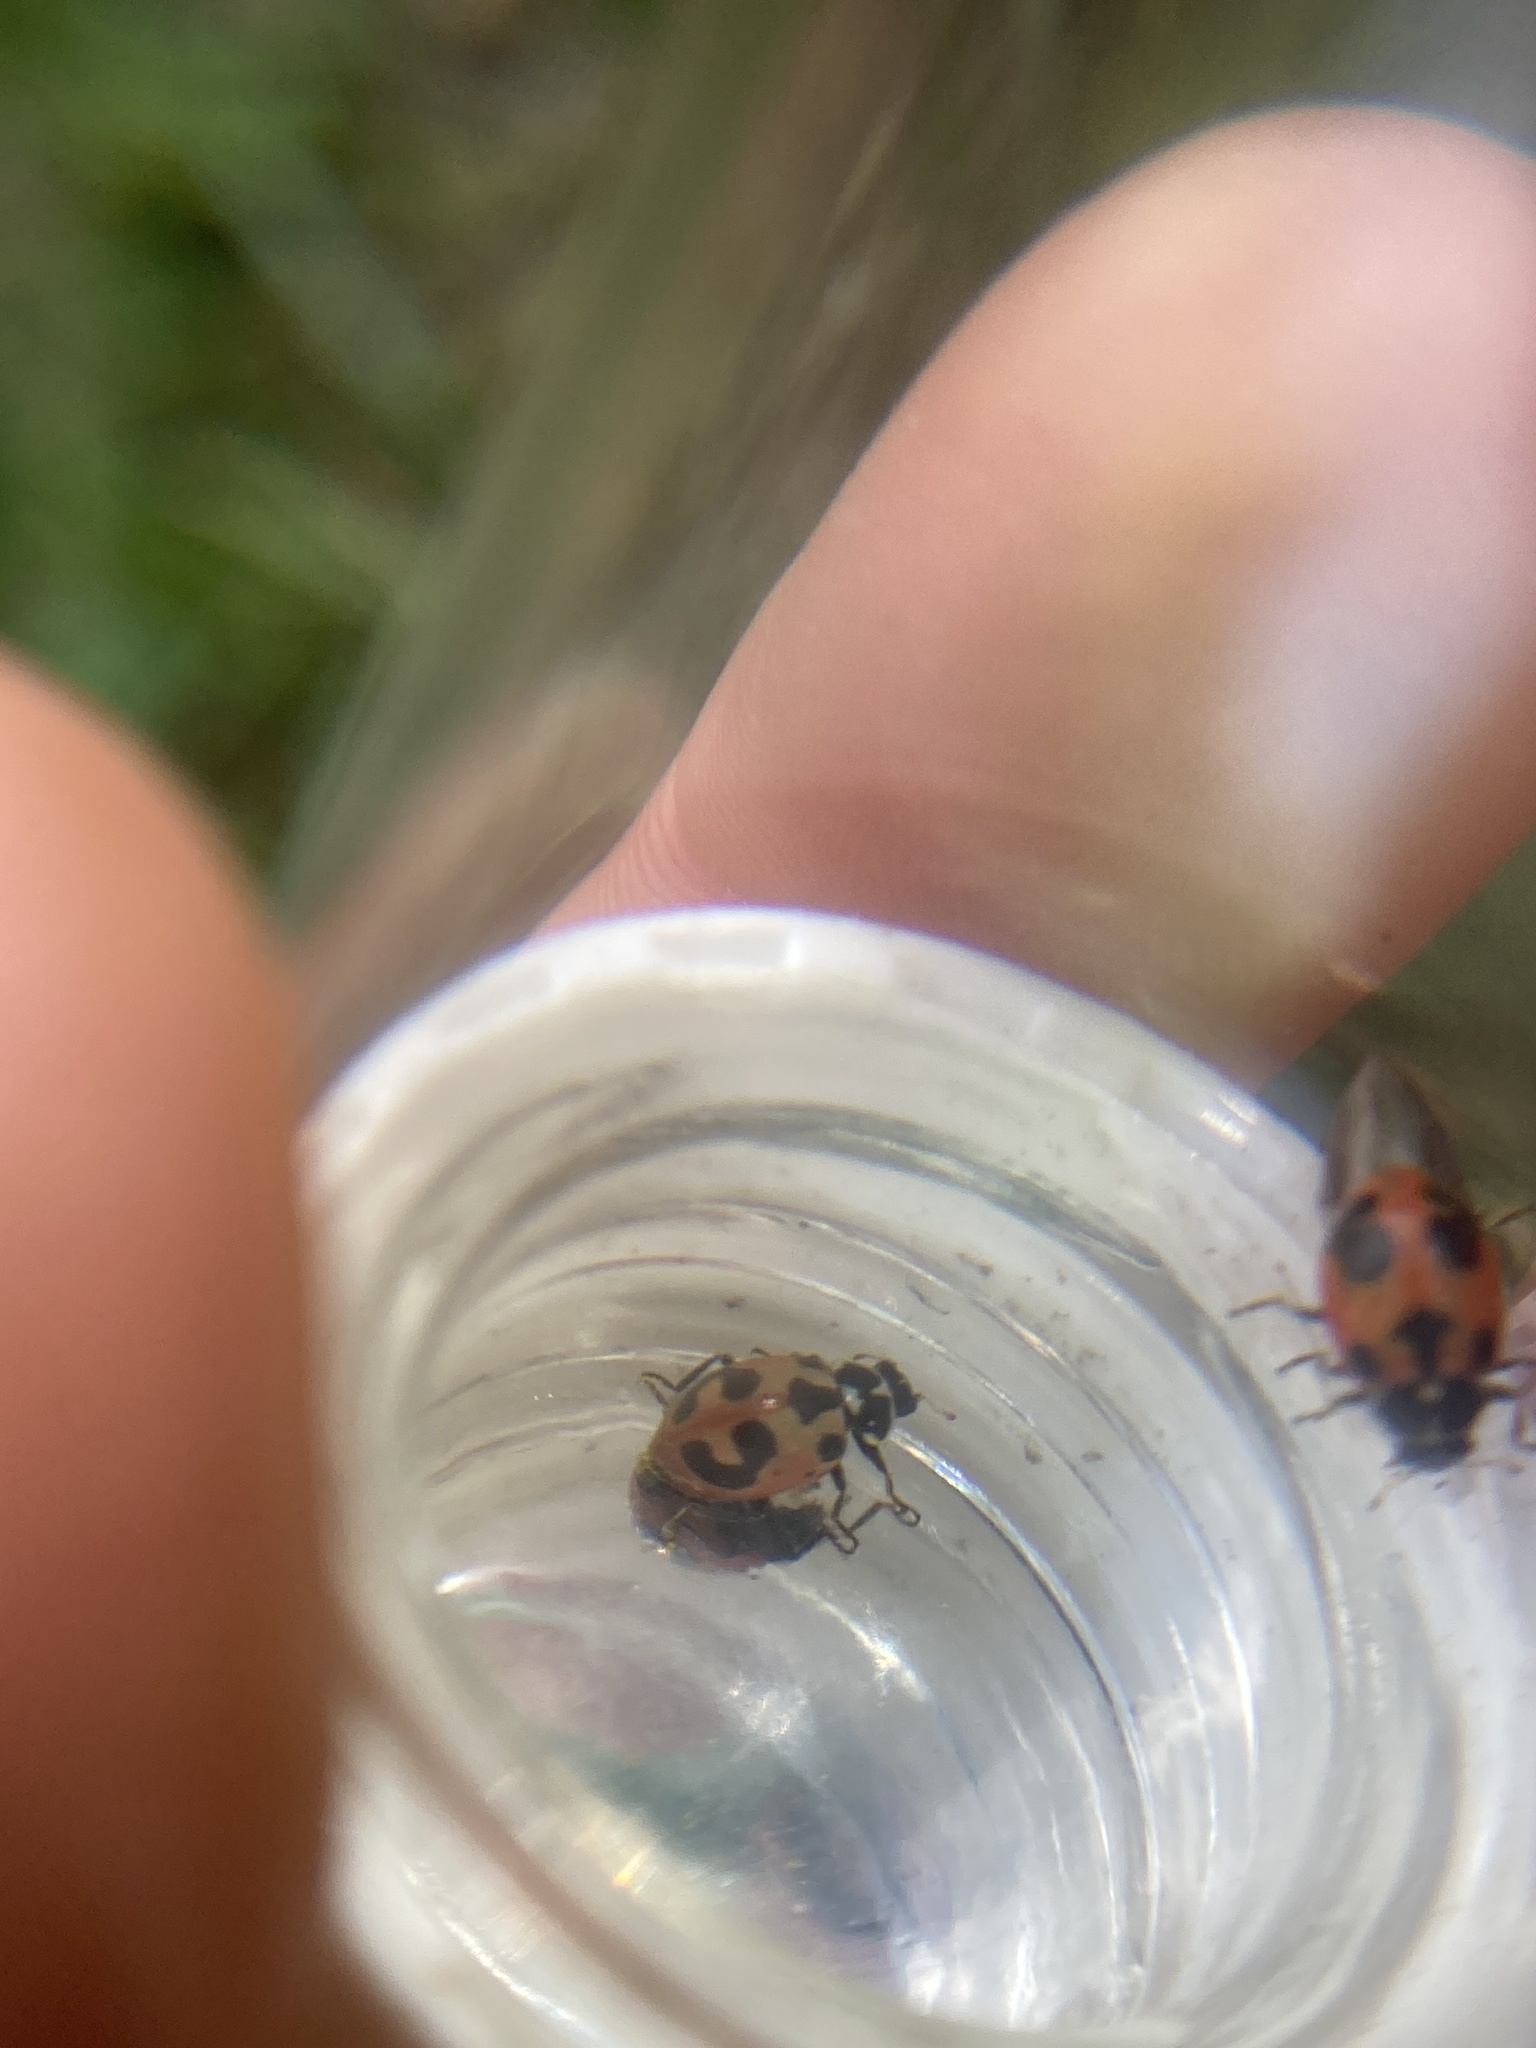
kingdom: Animalia
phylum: Arthropoda
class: Insecta
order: Coleoptera
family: Coccinellidae
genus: Hippodamia
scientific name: Hippodamia parenthesis
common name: Parenthesis lady beetle
